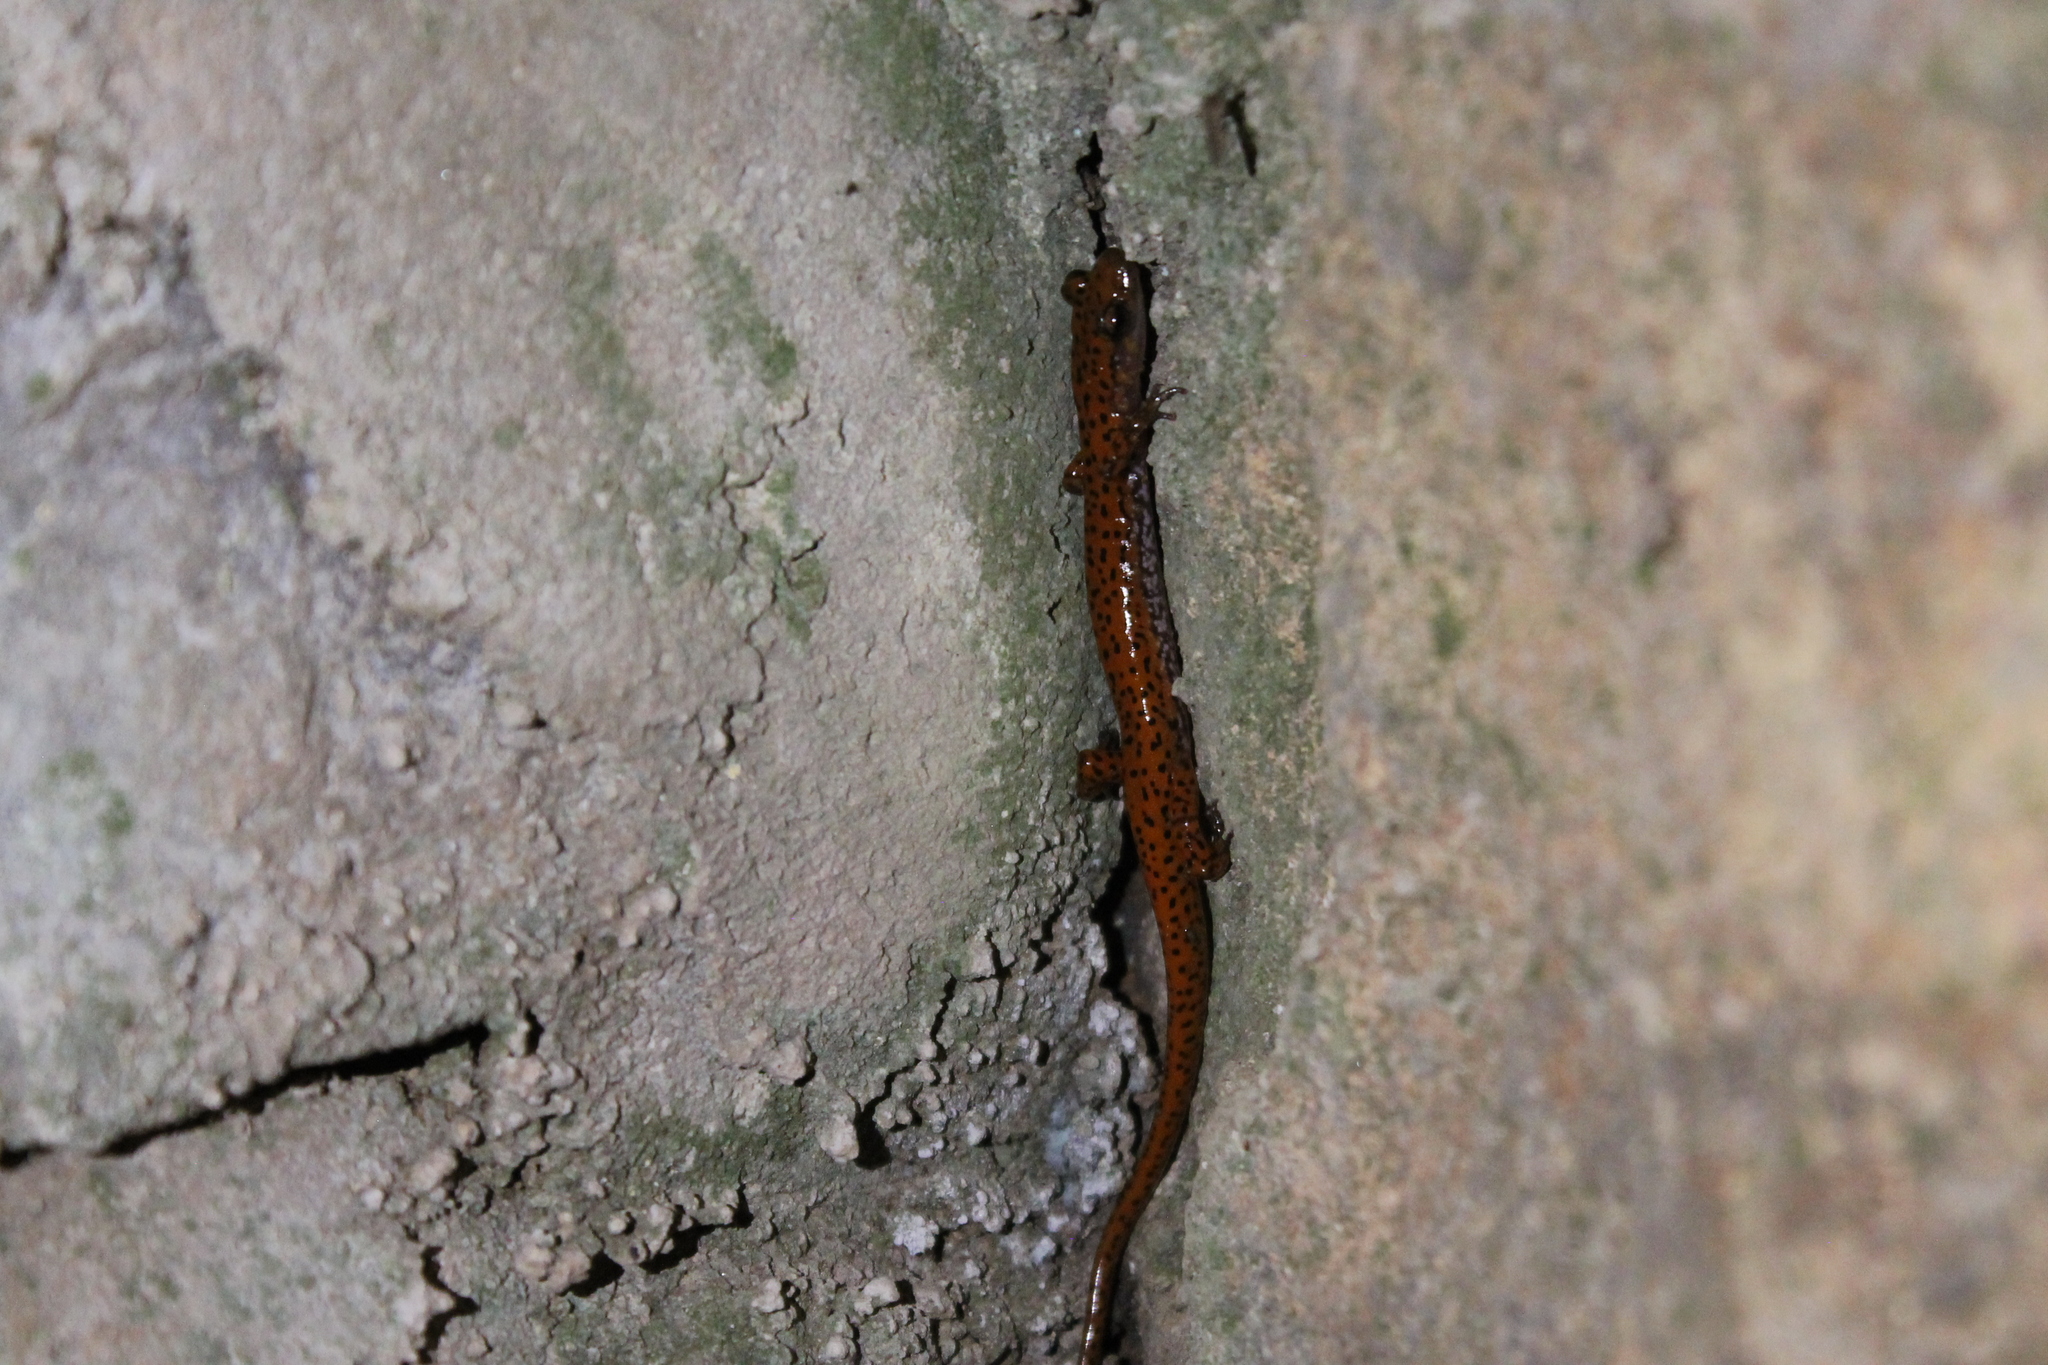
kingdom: Animalia
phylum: Chordata
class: Amphibia
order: Caudata
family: Plethodontidae
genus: Eurycea
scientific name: Eurycea lucifuga
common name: Cave salamander
